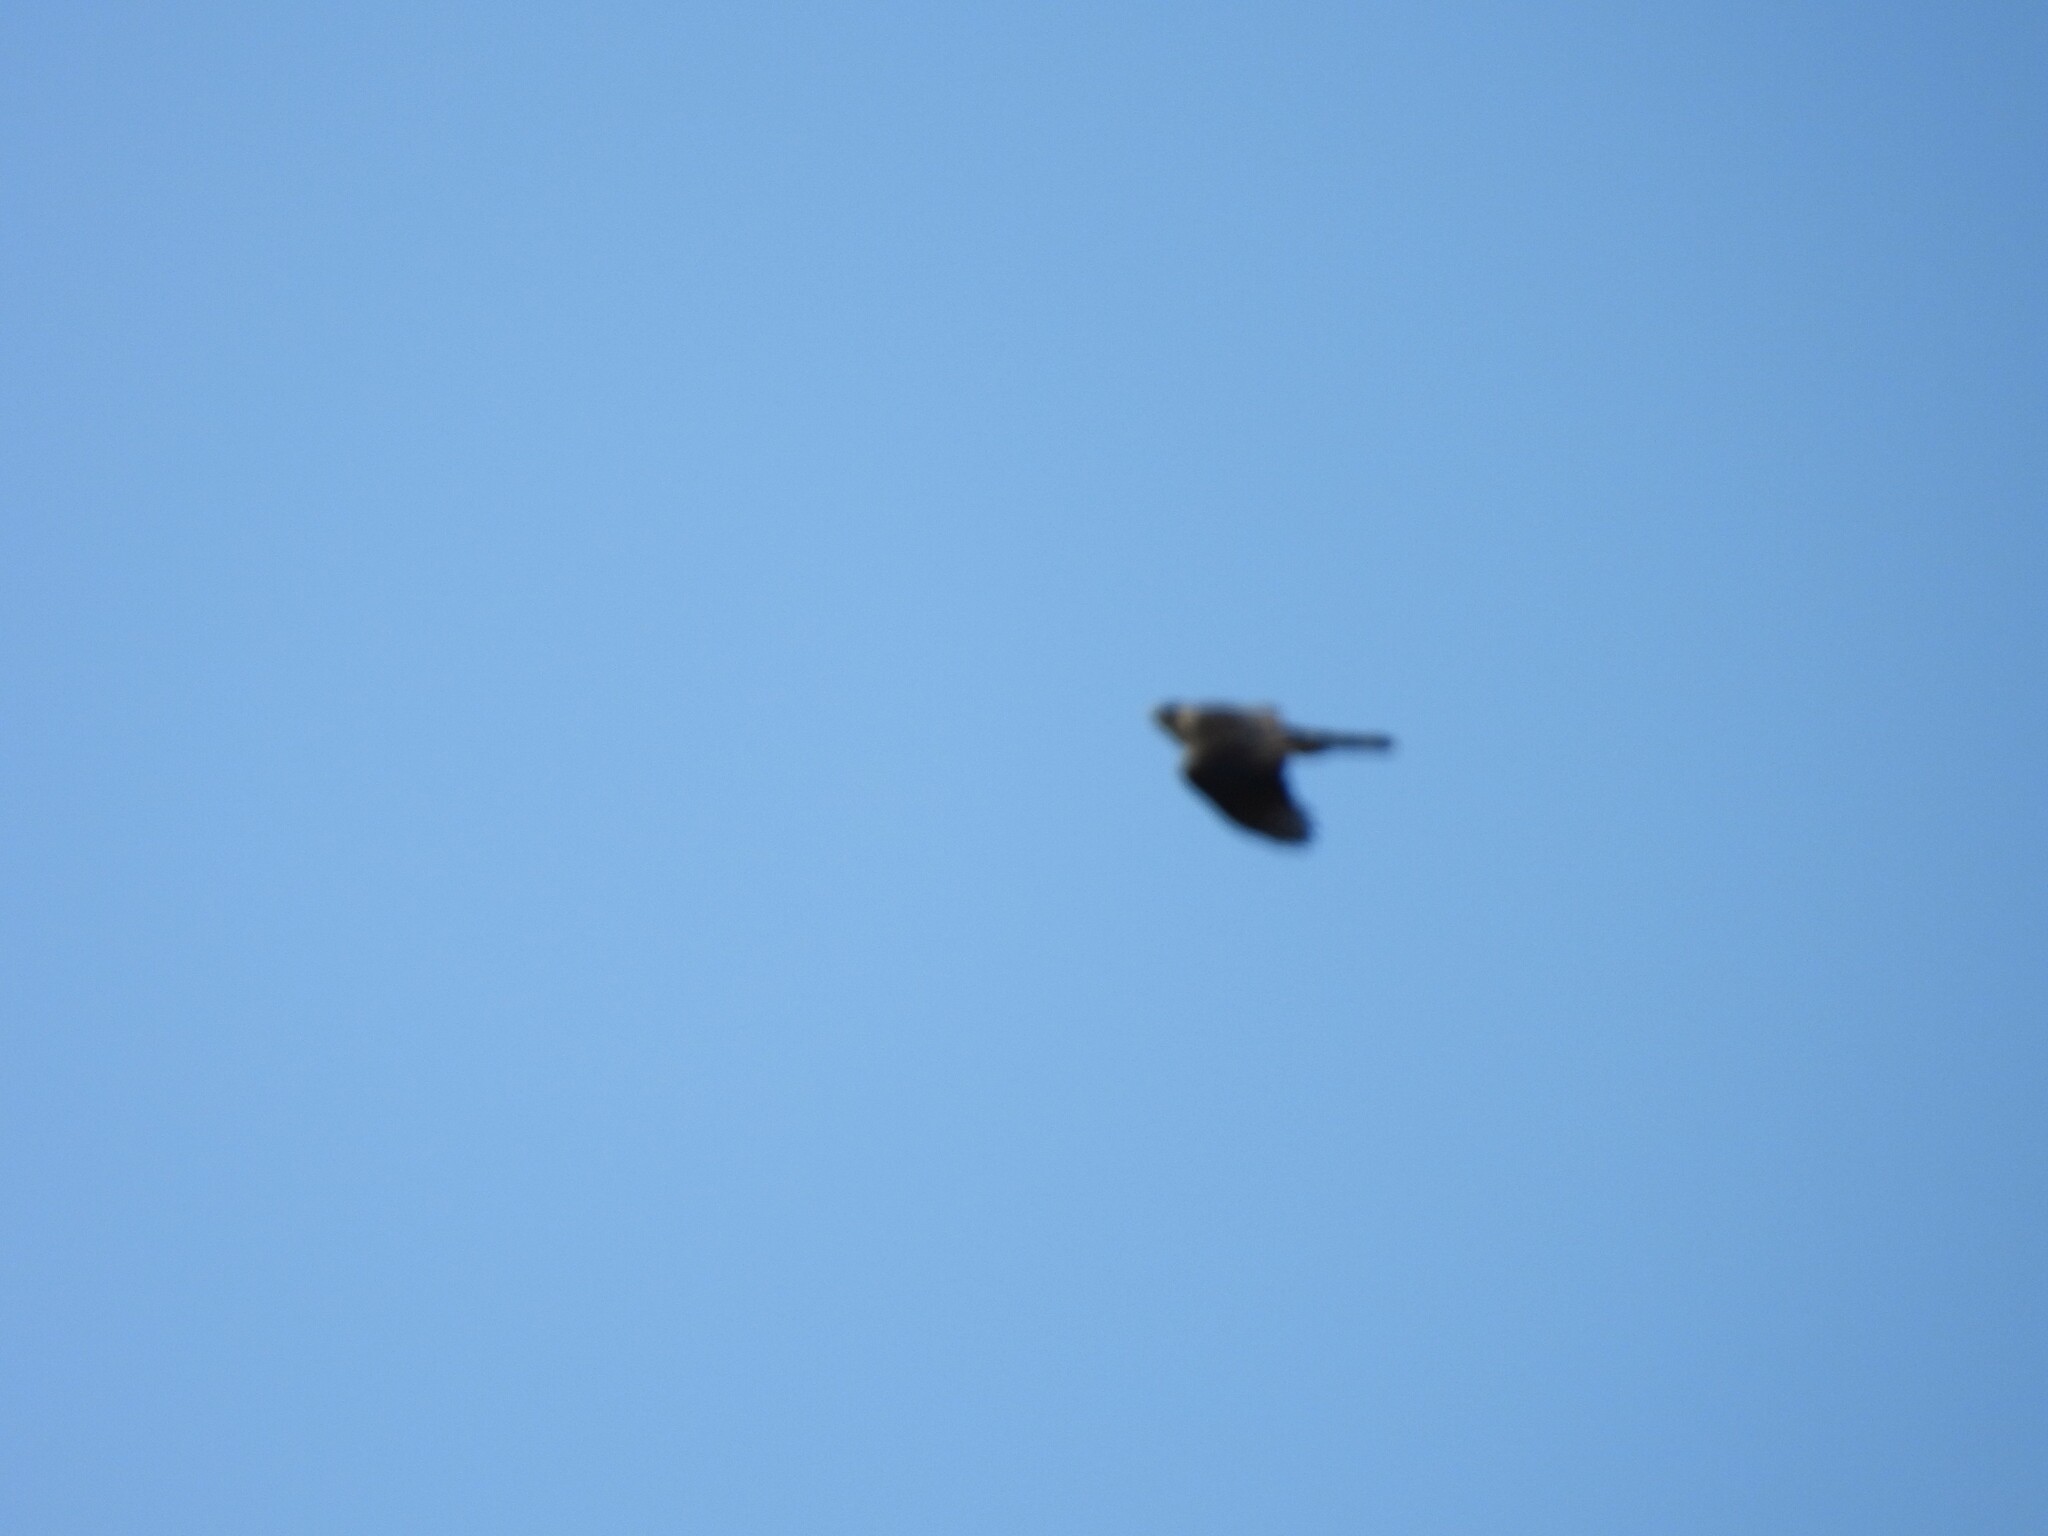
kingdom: Animalia
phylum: Chordata
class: Aves
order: Falconiformes
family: Falconidae
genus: Falco
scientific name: Falco peregrinus
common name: Peregrine falcon
